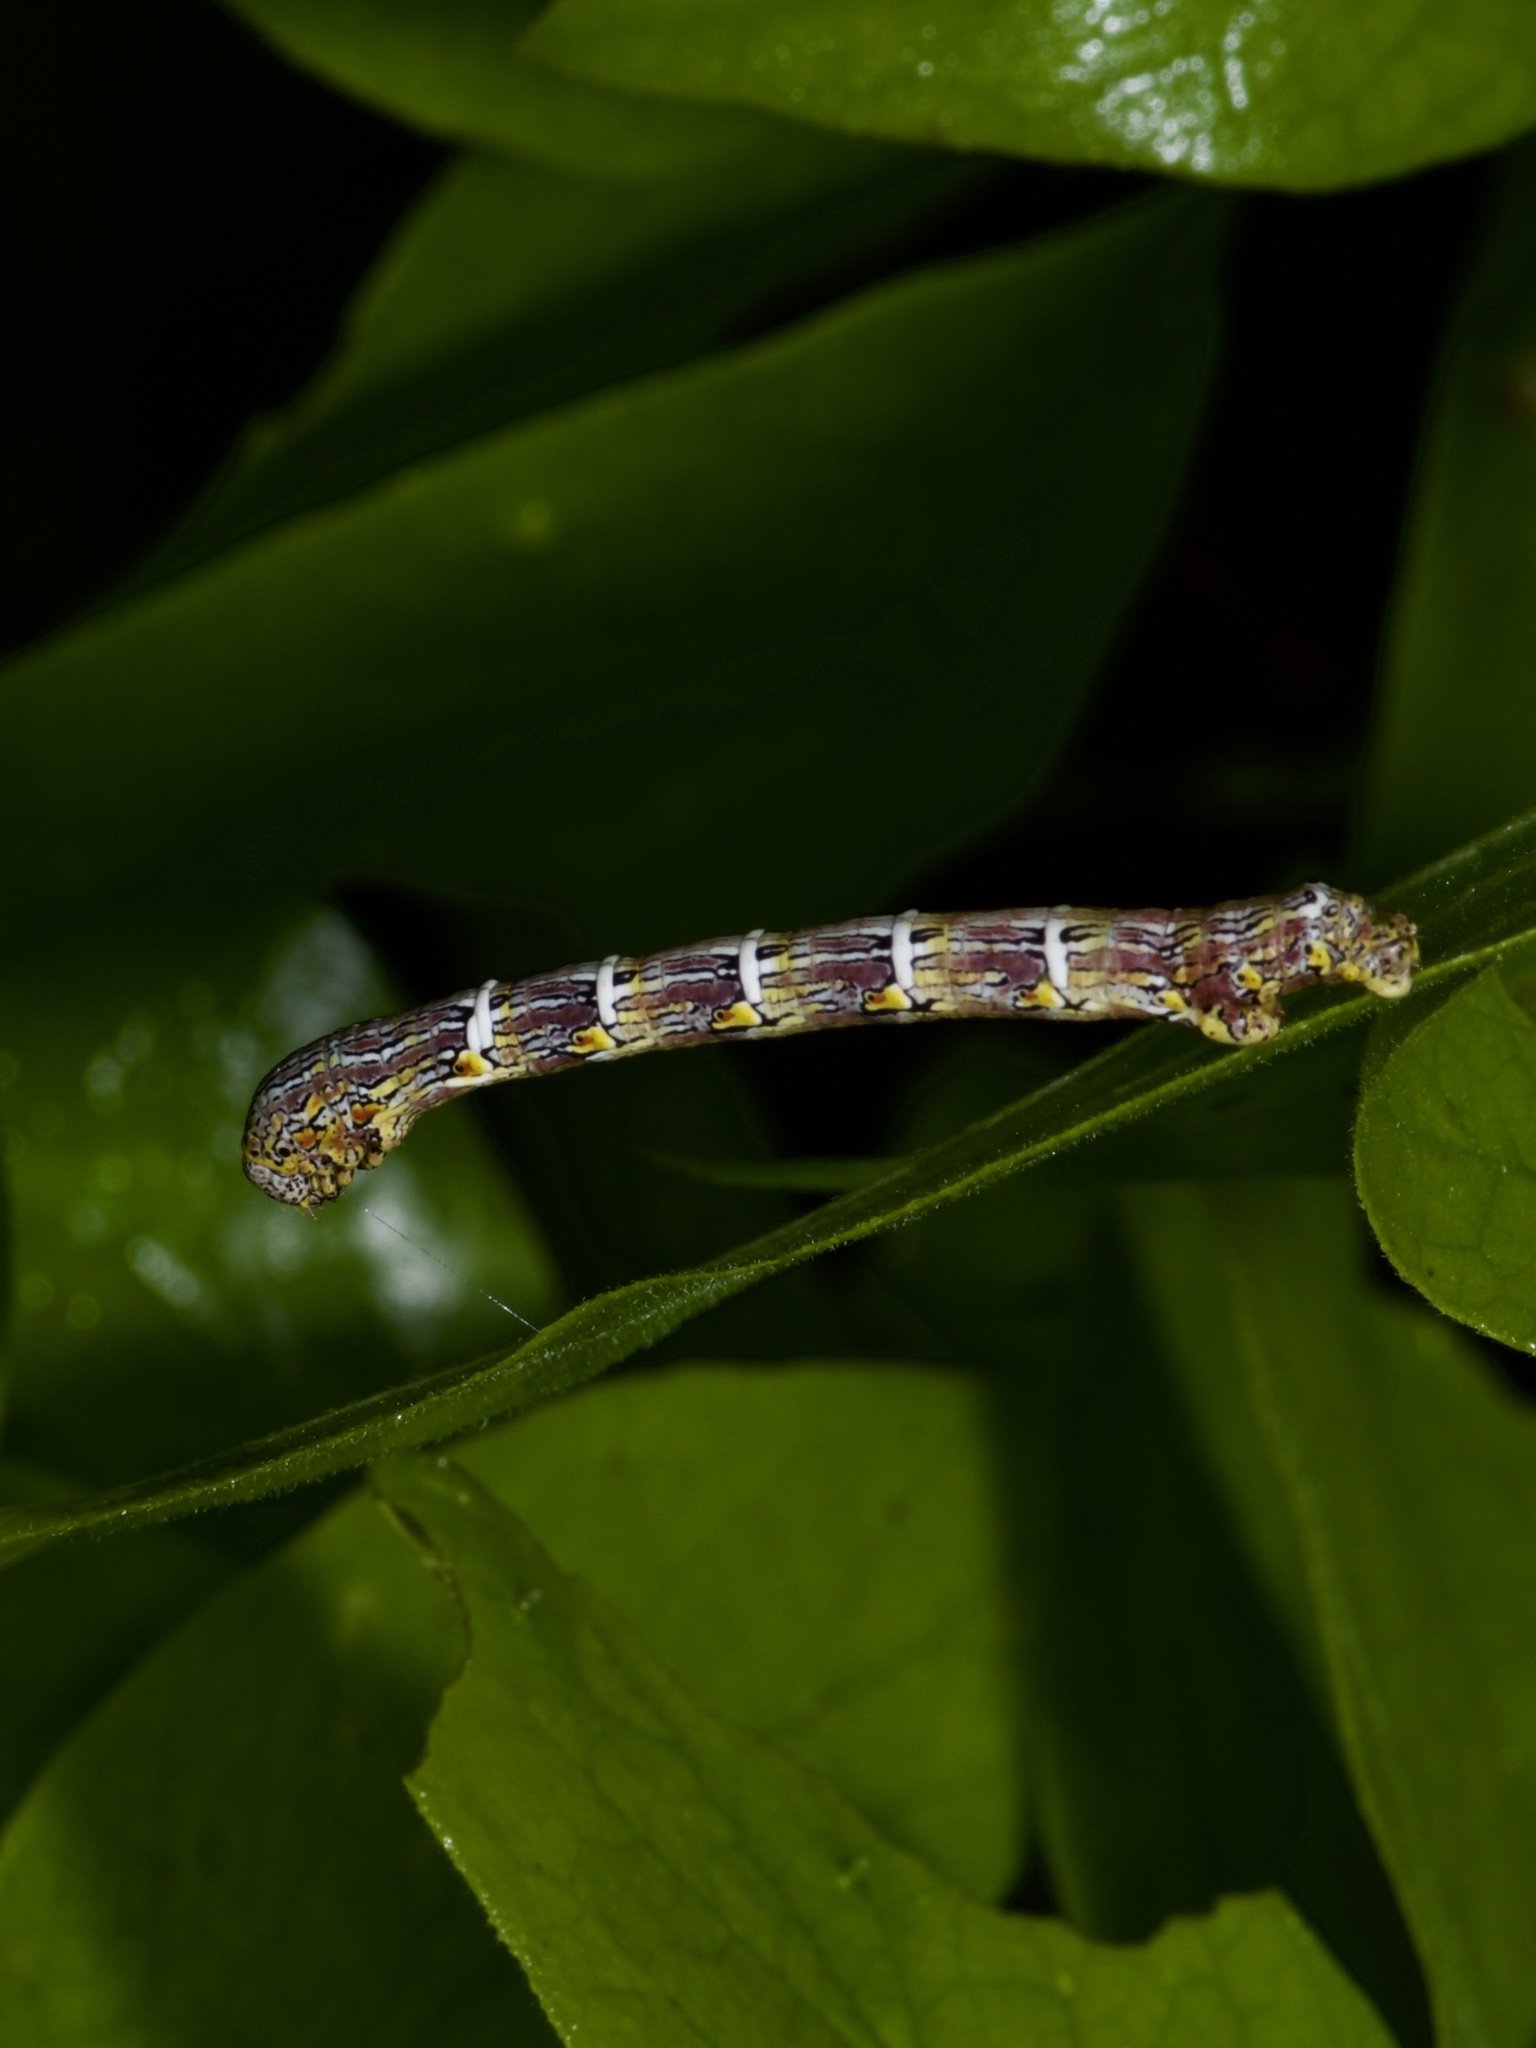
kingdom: Animalia
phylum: Arthropoda
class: Insecta
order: Lepidoptera
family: Geometridae
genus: Lycia
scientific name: Lycia ypsilon
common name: Wooly gray
